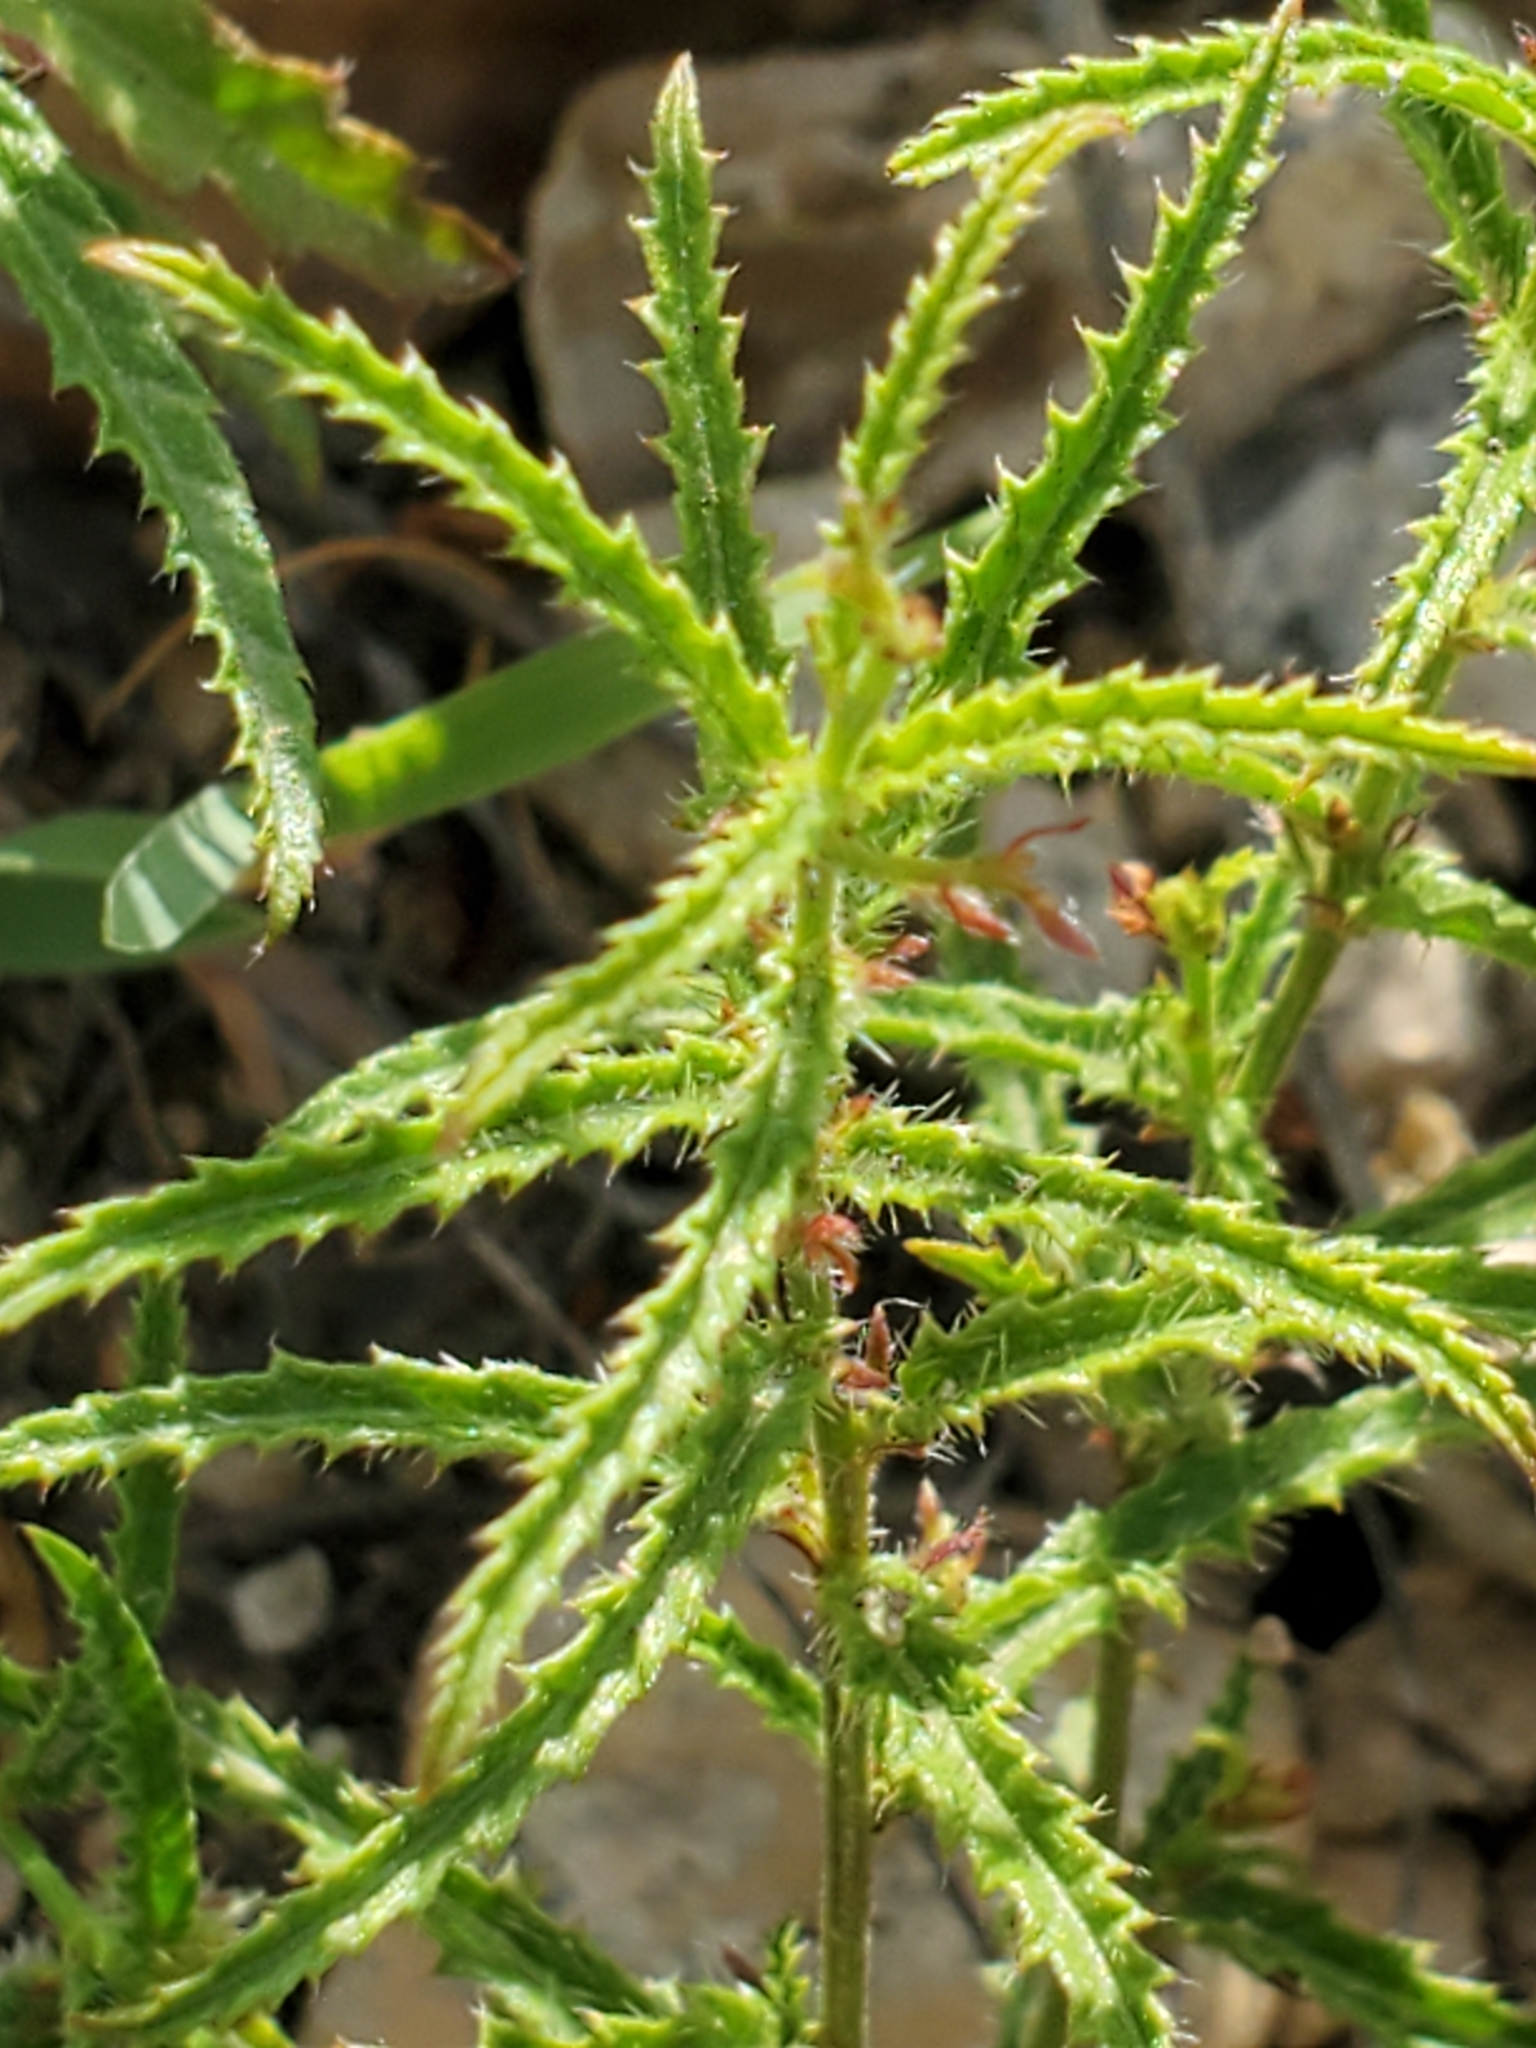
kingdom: Plantae
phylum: Tracheophyta
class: Magnoliopsida
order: Malpighiales
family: Euphorbiaceae
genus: Tragia
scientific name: Tragia ramosa
